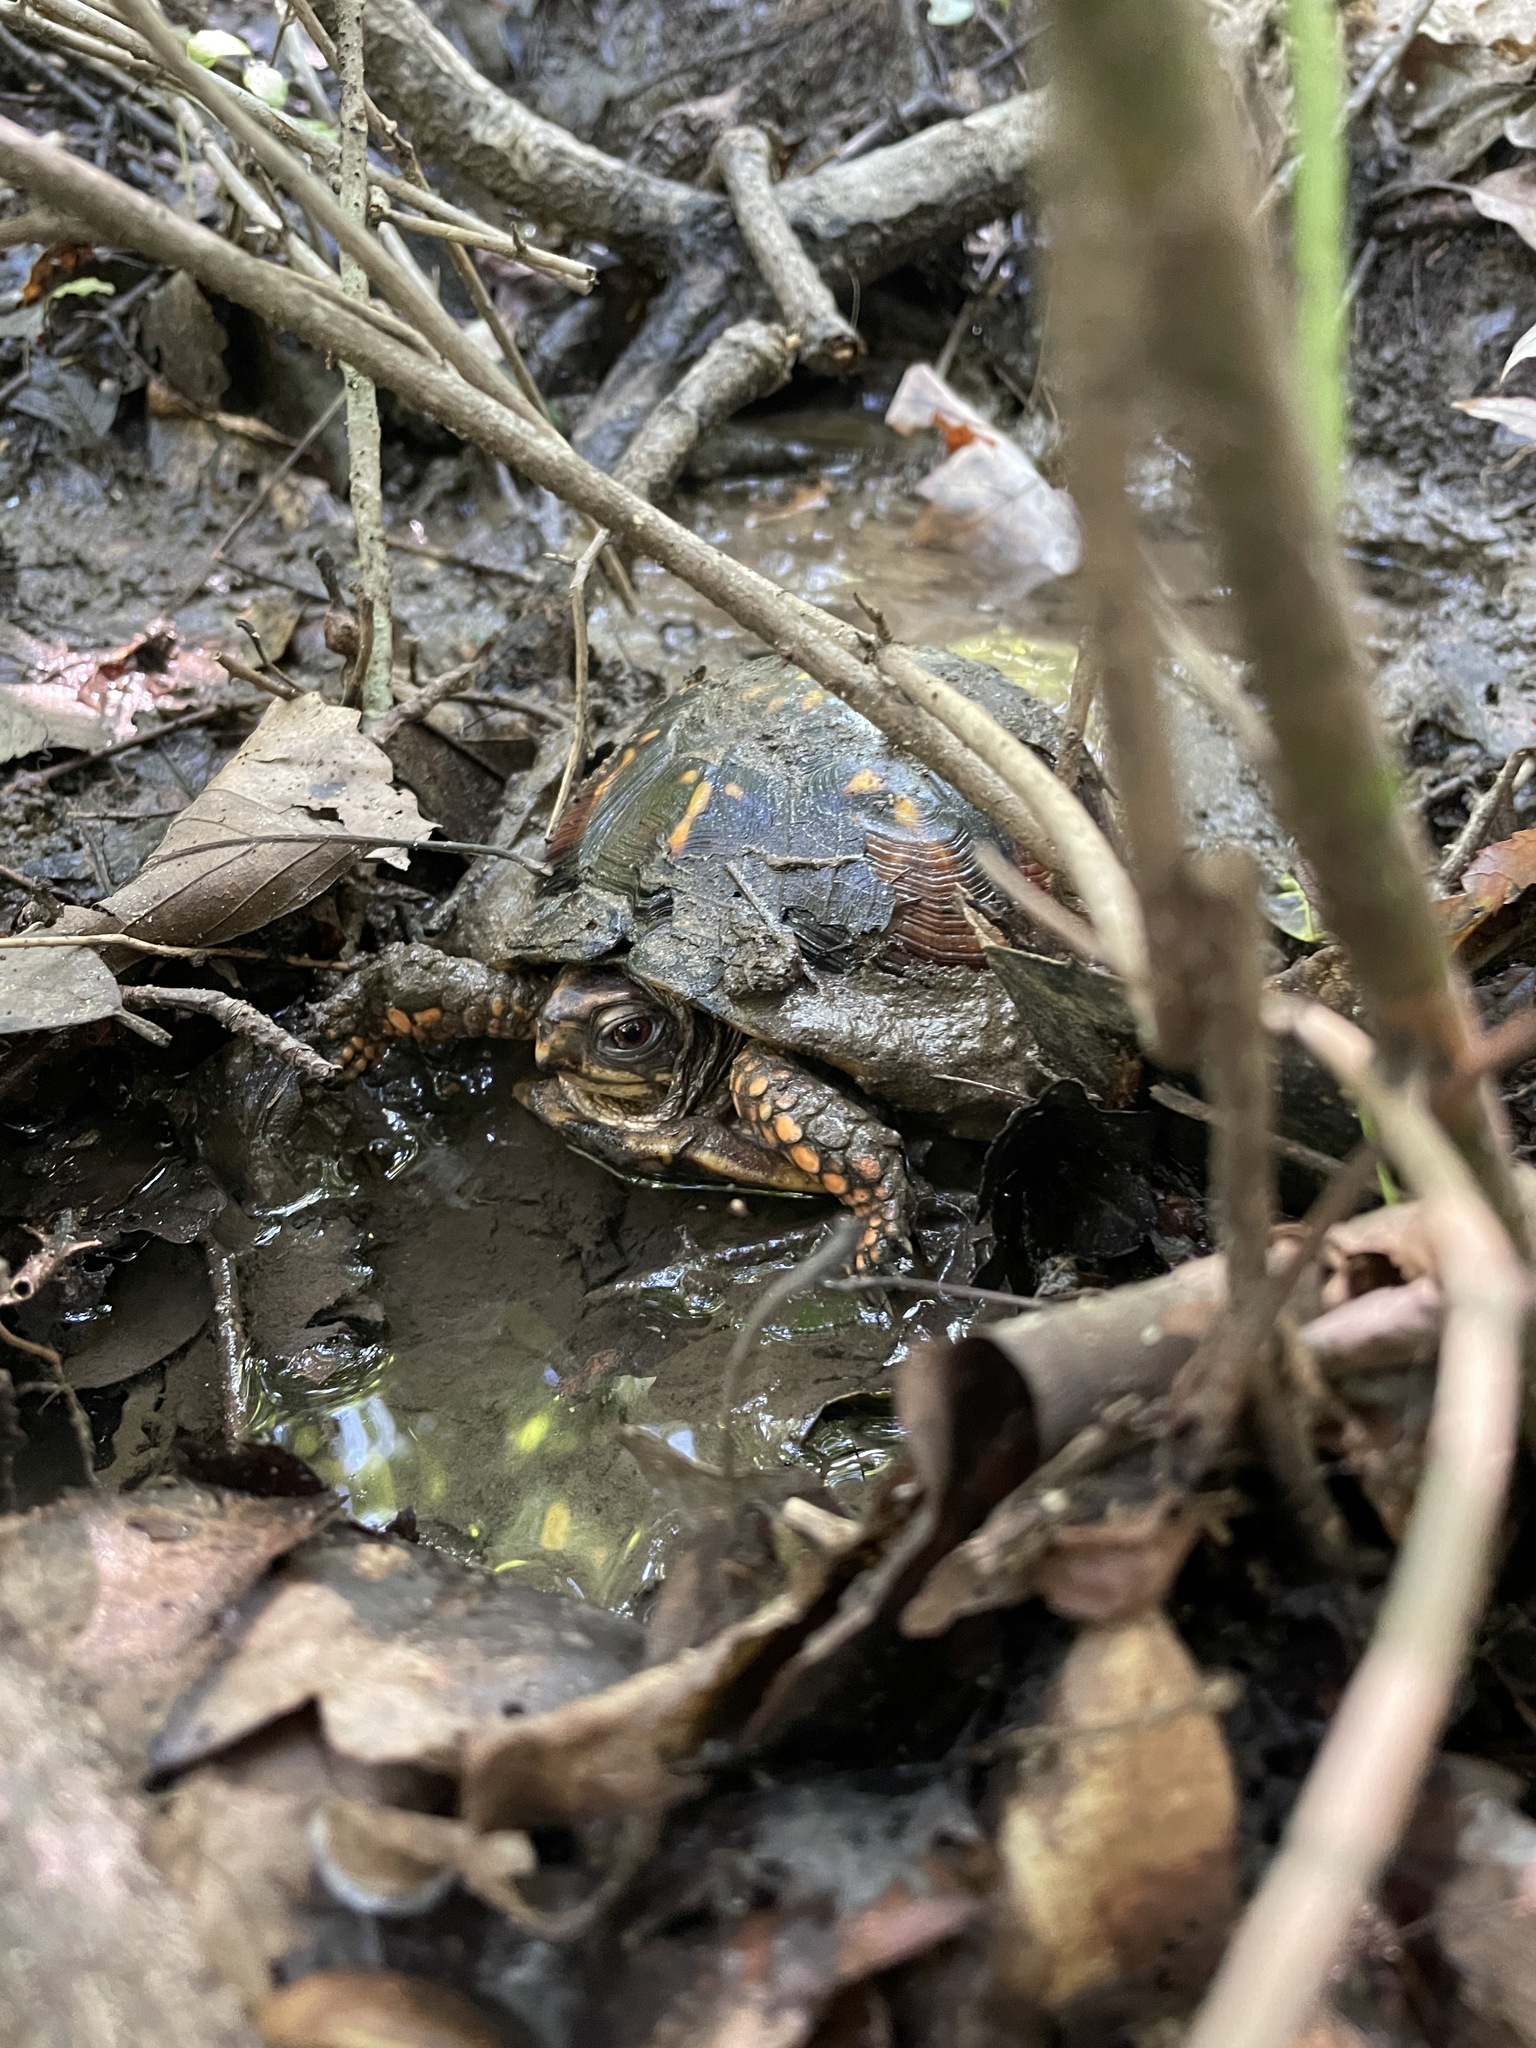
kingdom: Animalia
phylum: Chordata
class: Testudines
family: Emydidae
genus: Terrapene
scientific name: Terrapene carolina
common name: Common box turtle
